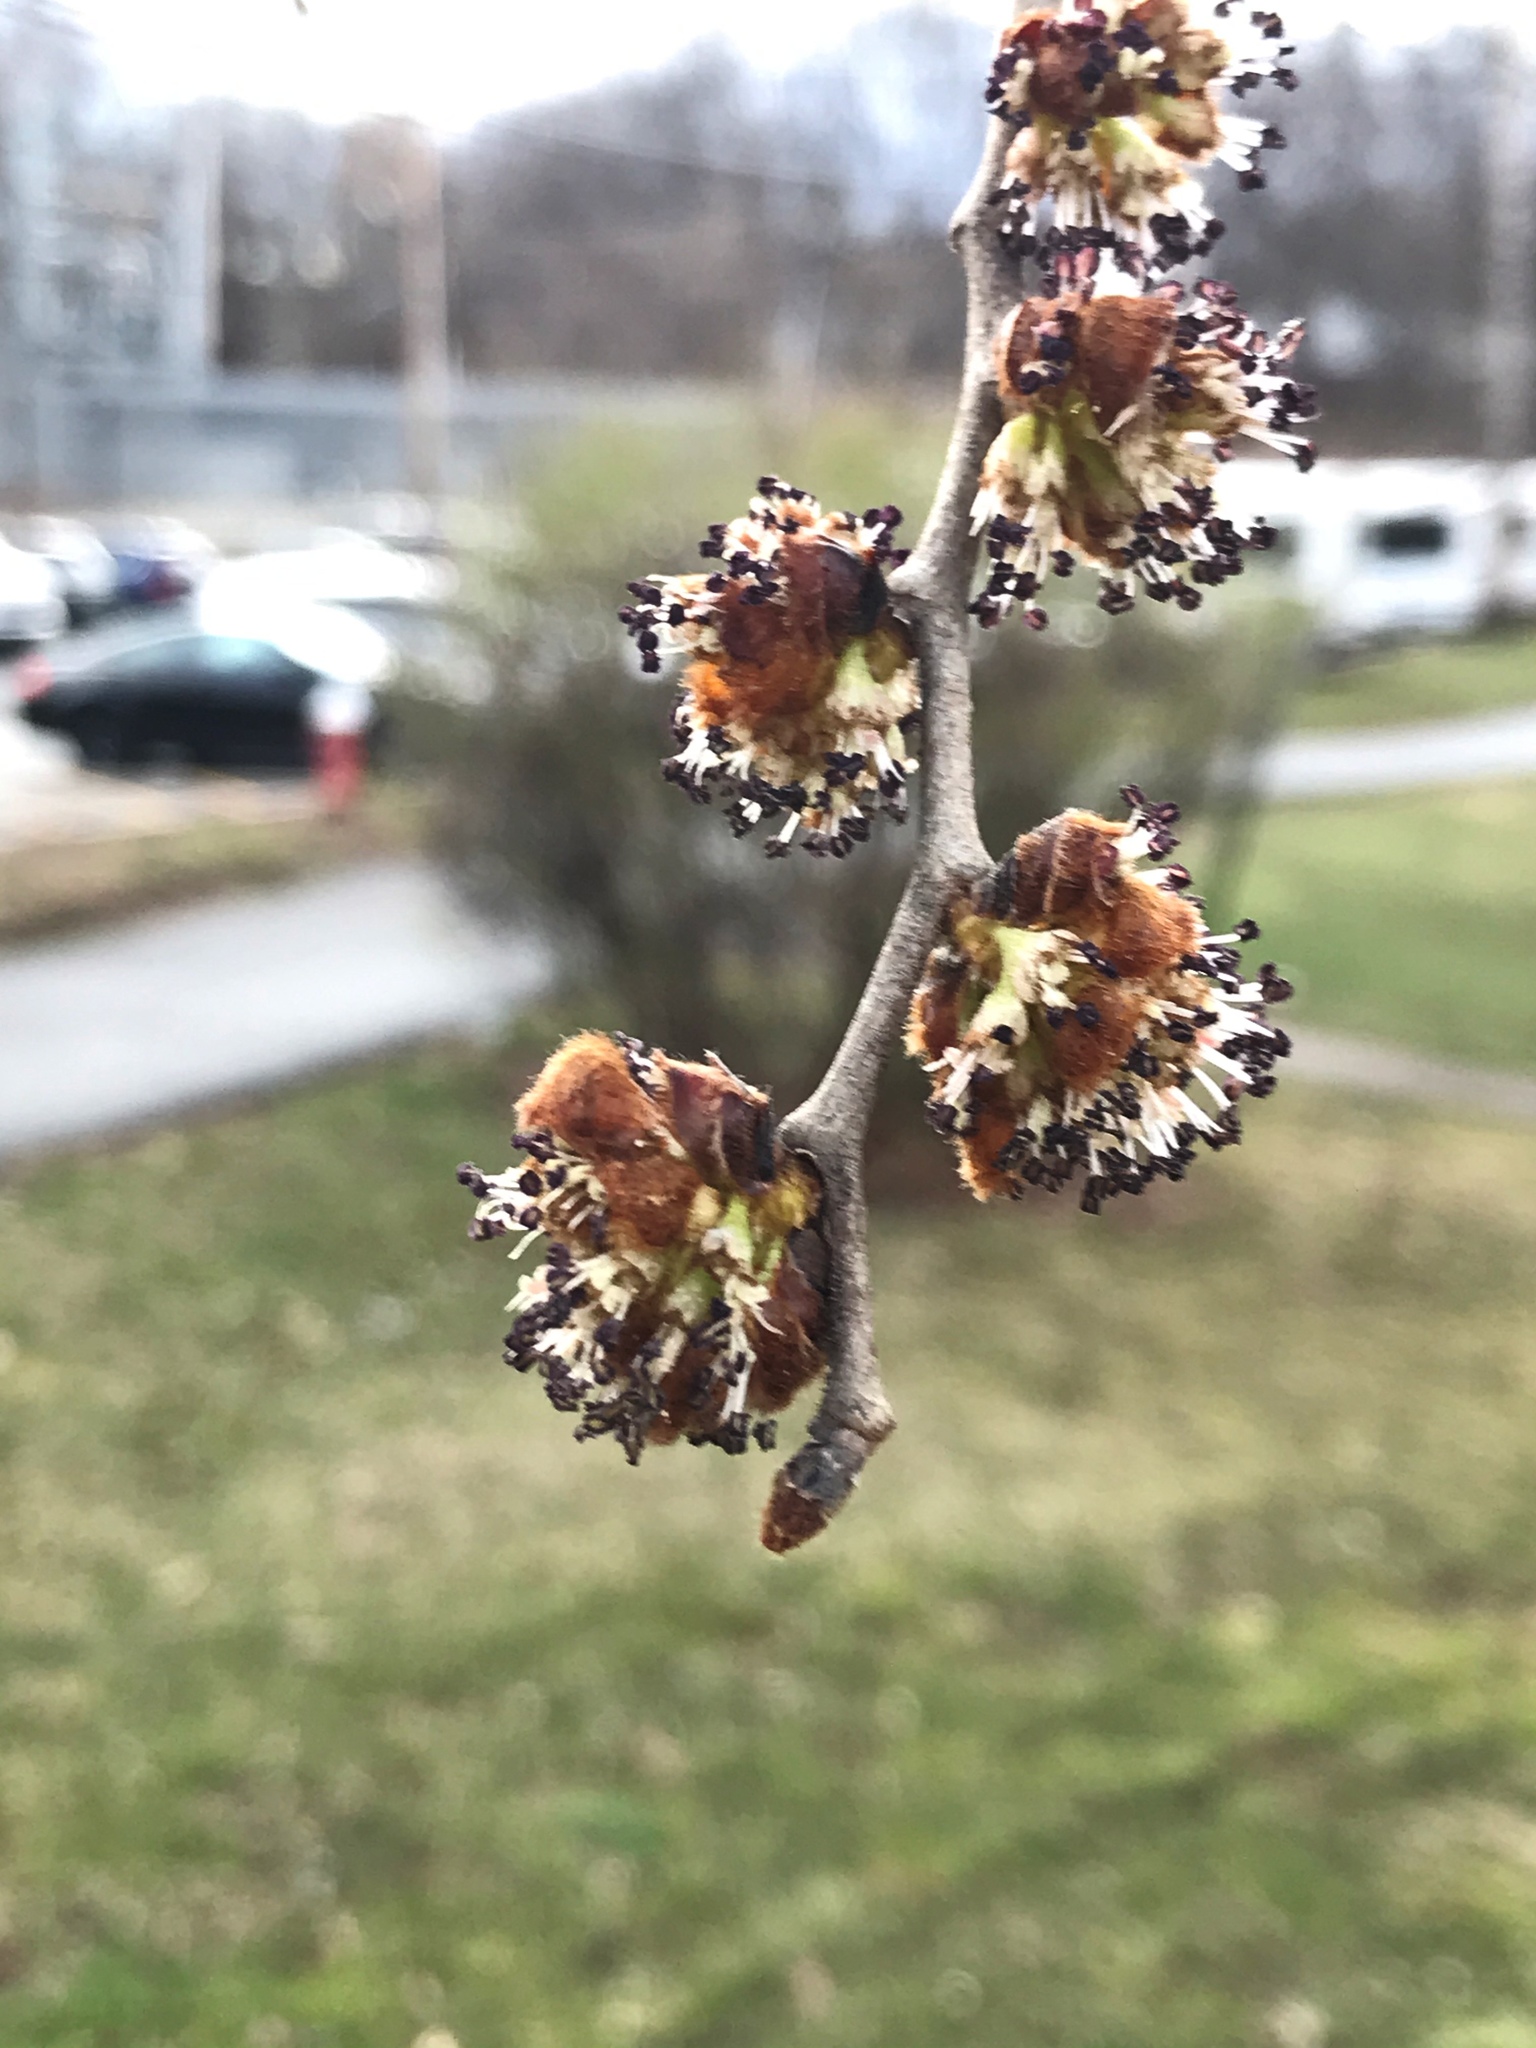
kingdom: Plantae
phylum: Tracheophyta
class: Magnoliopsida
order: Rosales
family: Ulmaceae
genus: Ulmus
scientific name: Ulmus rubra
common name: Slippery elm
